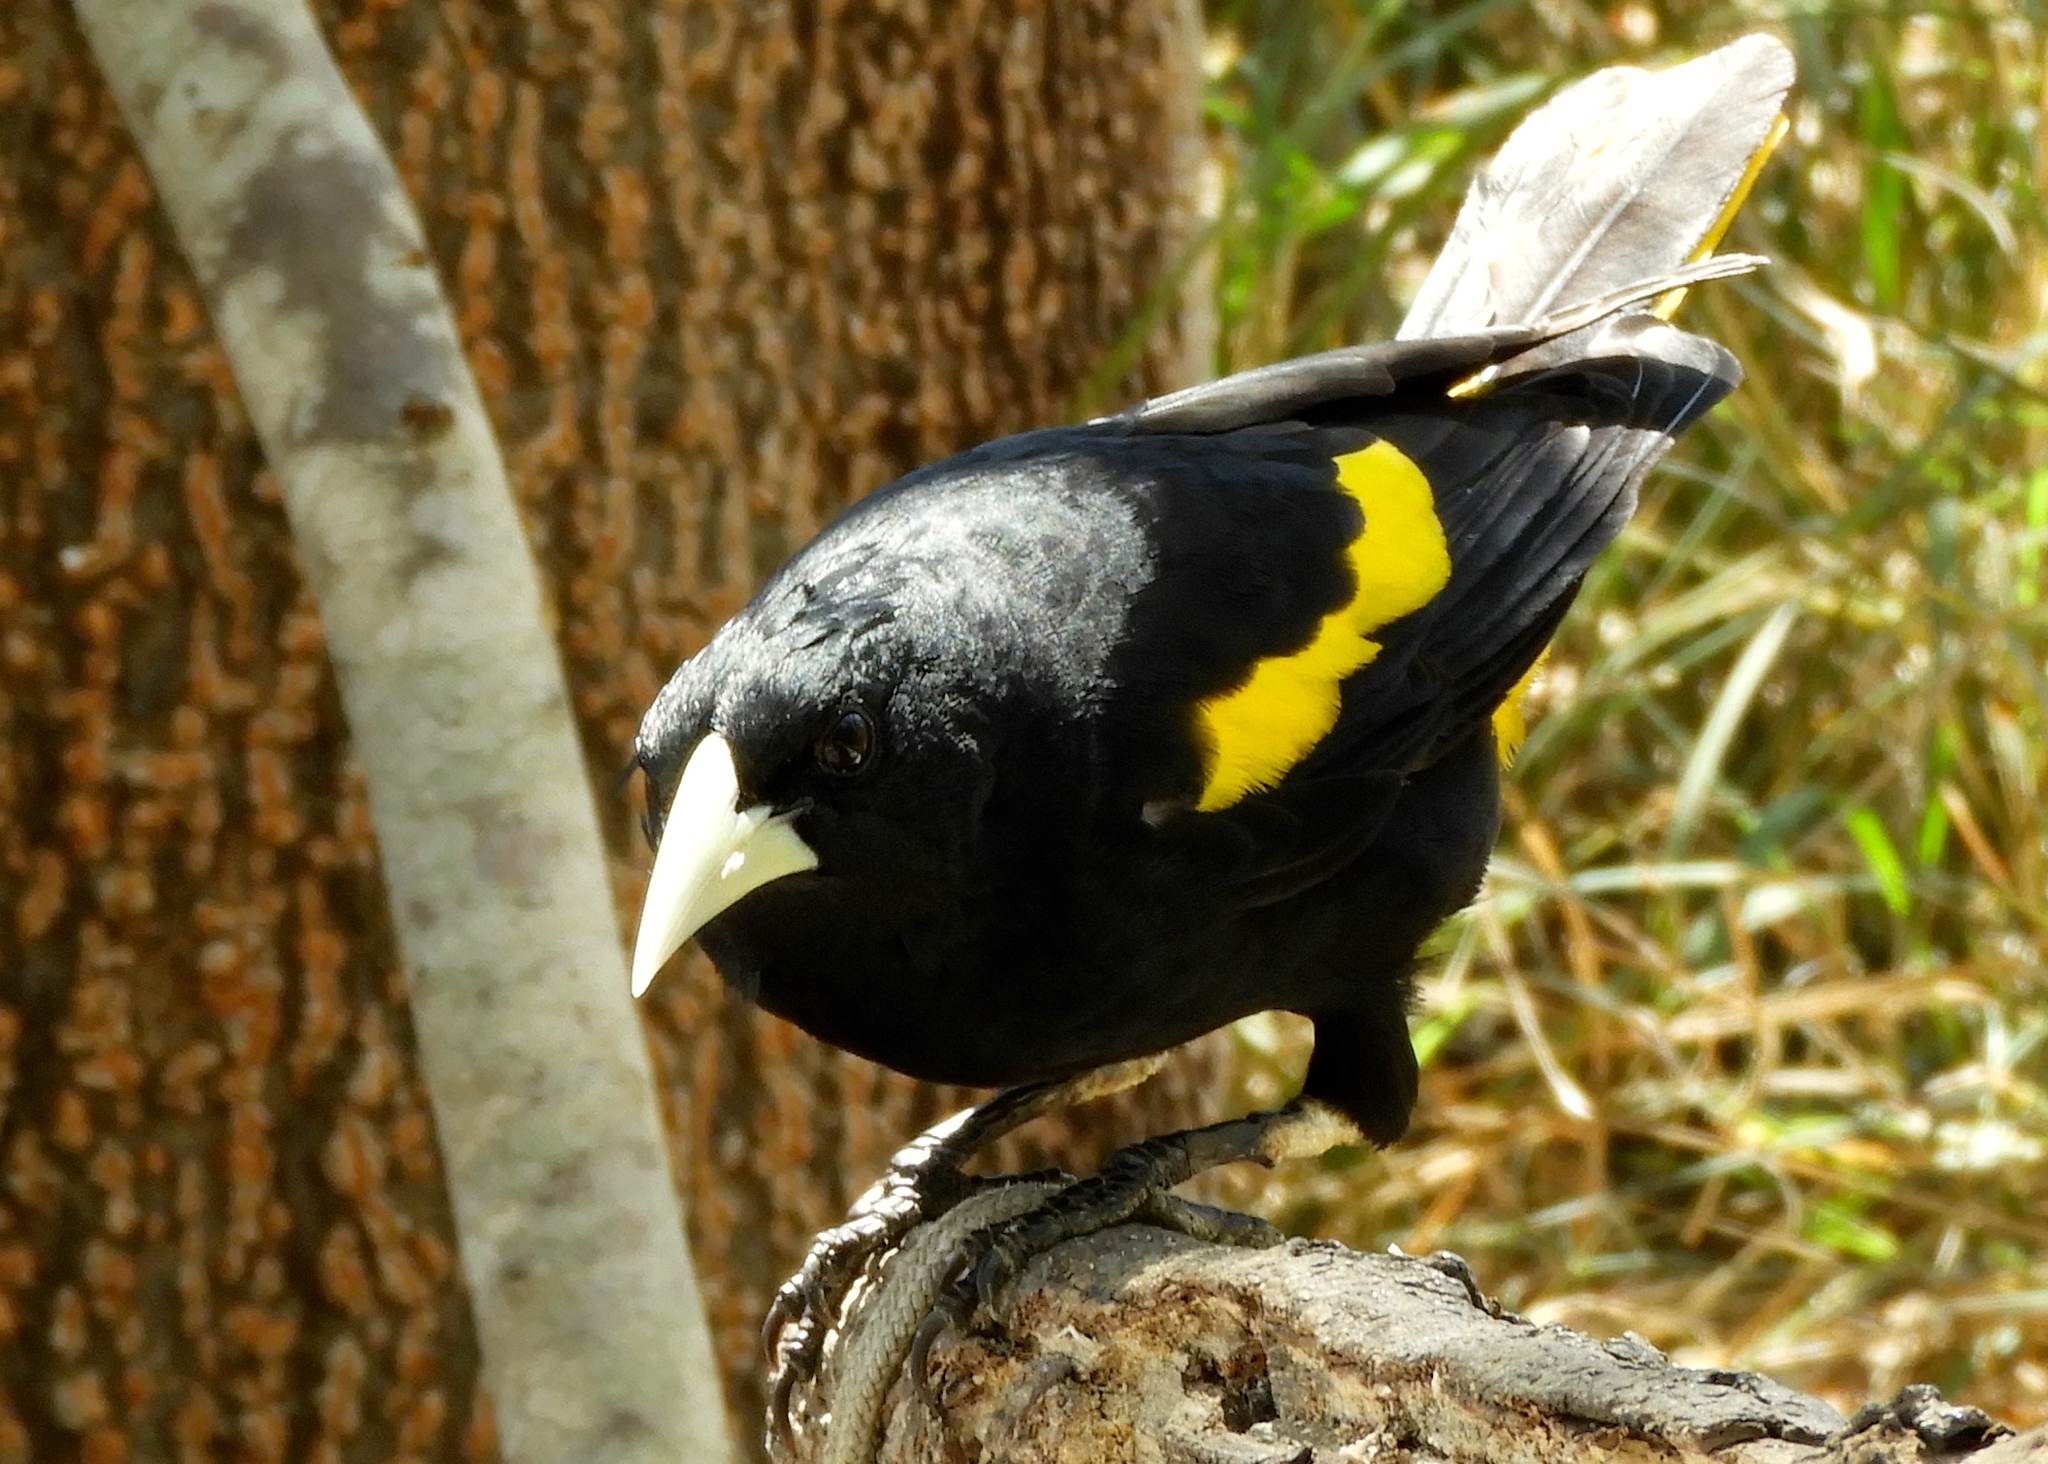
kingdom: Animalia
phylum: Chordata
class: Aves
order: Passeriformes
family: Icteridae
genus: Cacicus
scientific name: Cacicus melanicterus
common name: Yellow-winged cacique
